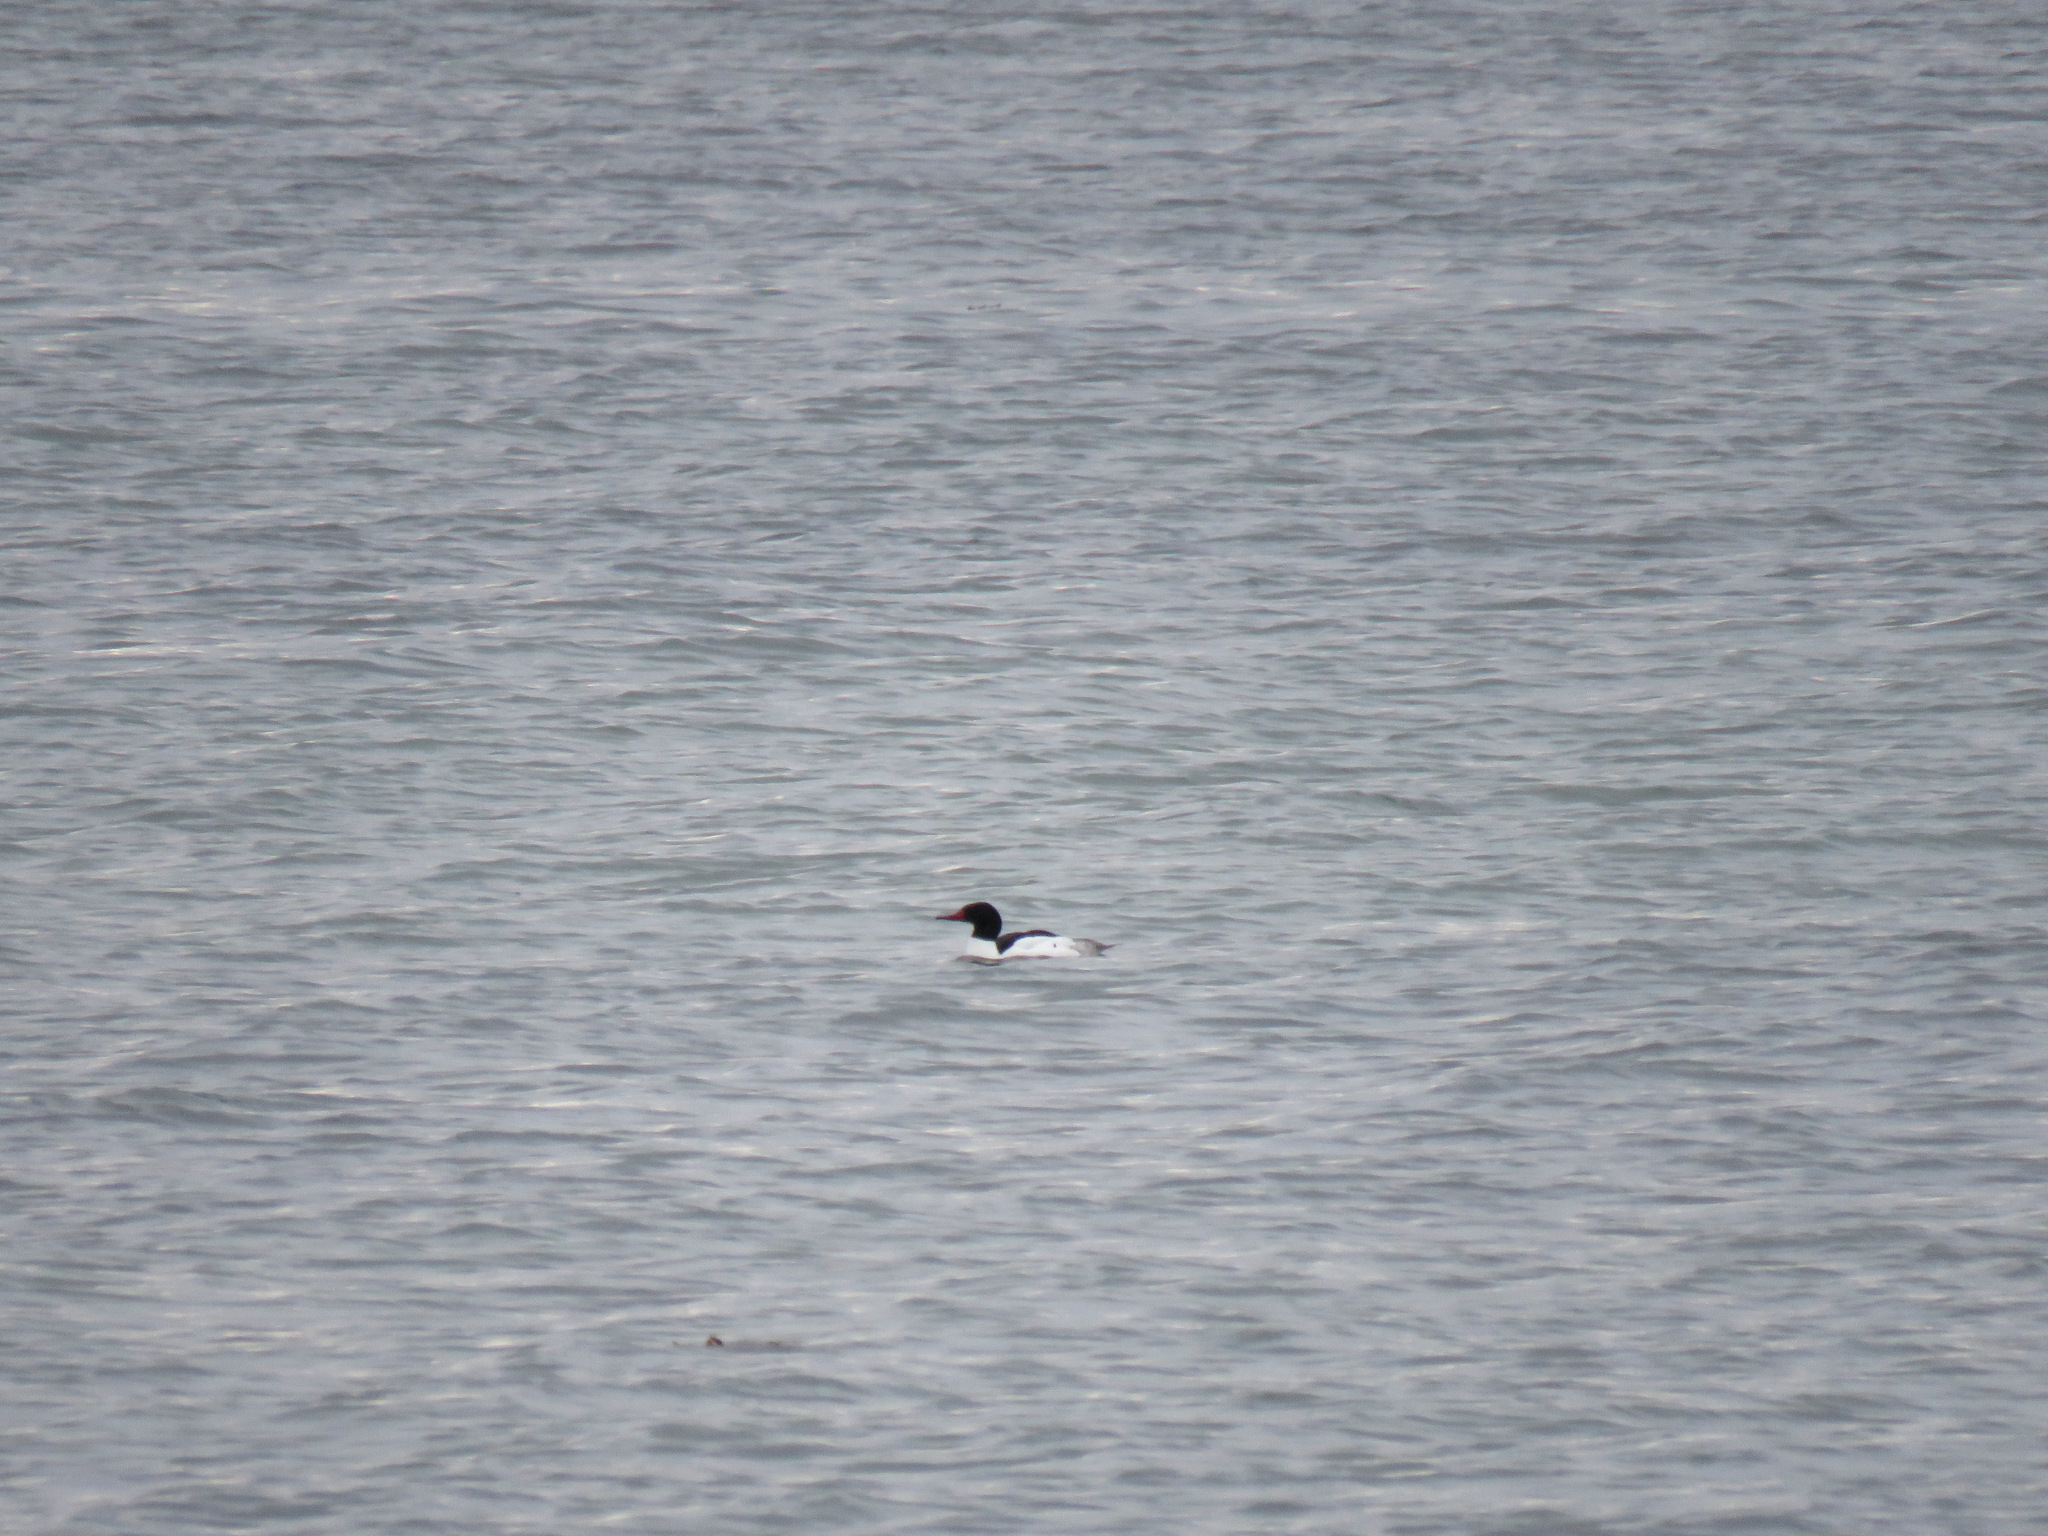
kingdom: Animalia
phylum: Chordata
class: Aves
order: Anseriformes
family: Anatidae
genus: Mergus
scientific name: Mergus merganser
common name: Common merganser
